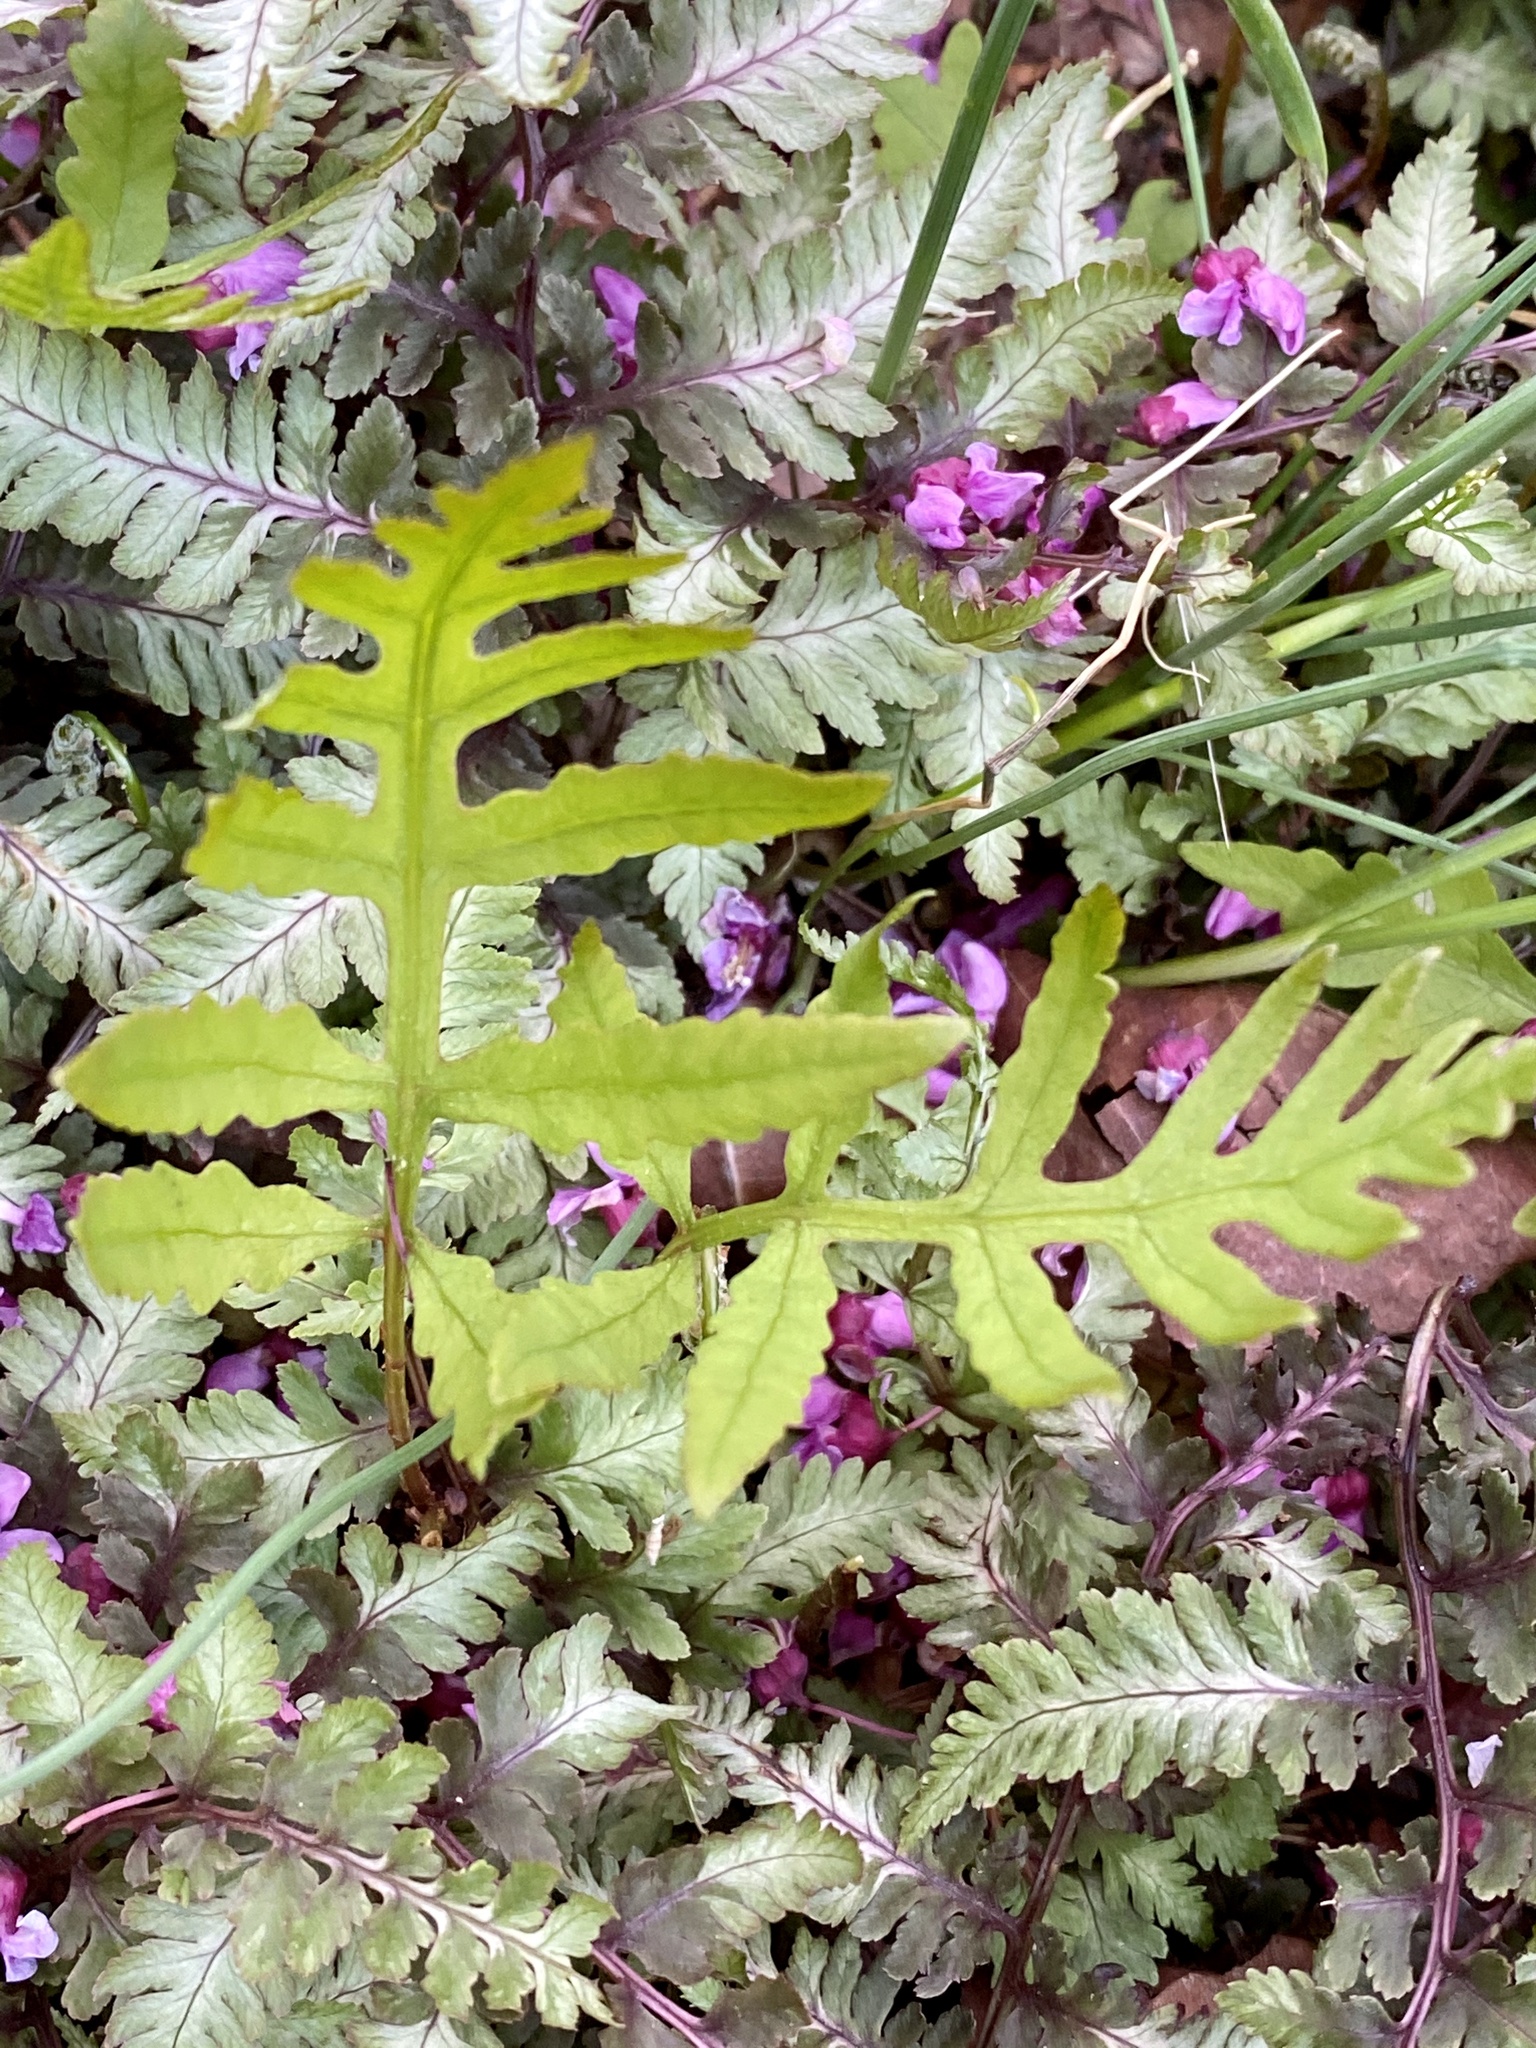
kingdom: Plantae
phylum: Tracheophyta
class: Polypodiopsida
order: Polypodiales
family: Onocleaceae
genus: Onoclea
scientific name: Onoclea sensibilis
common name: Sensitive fern
